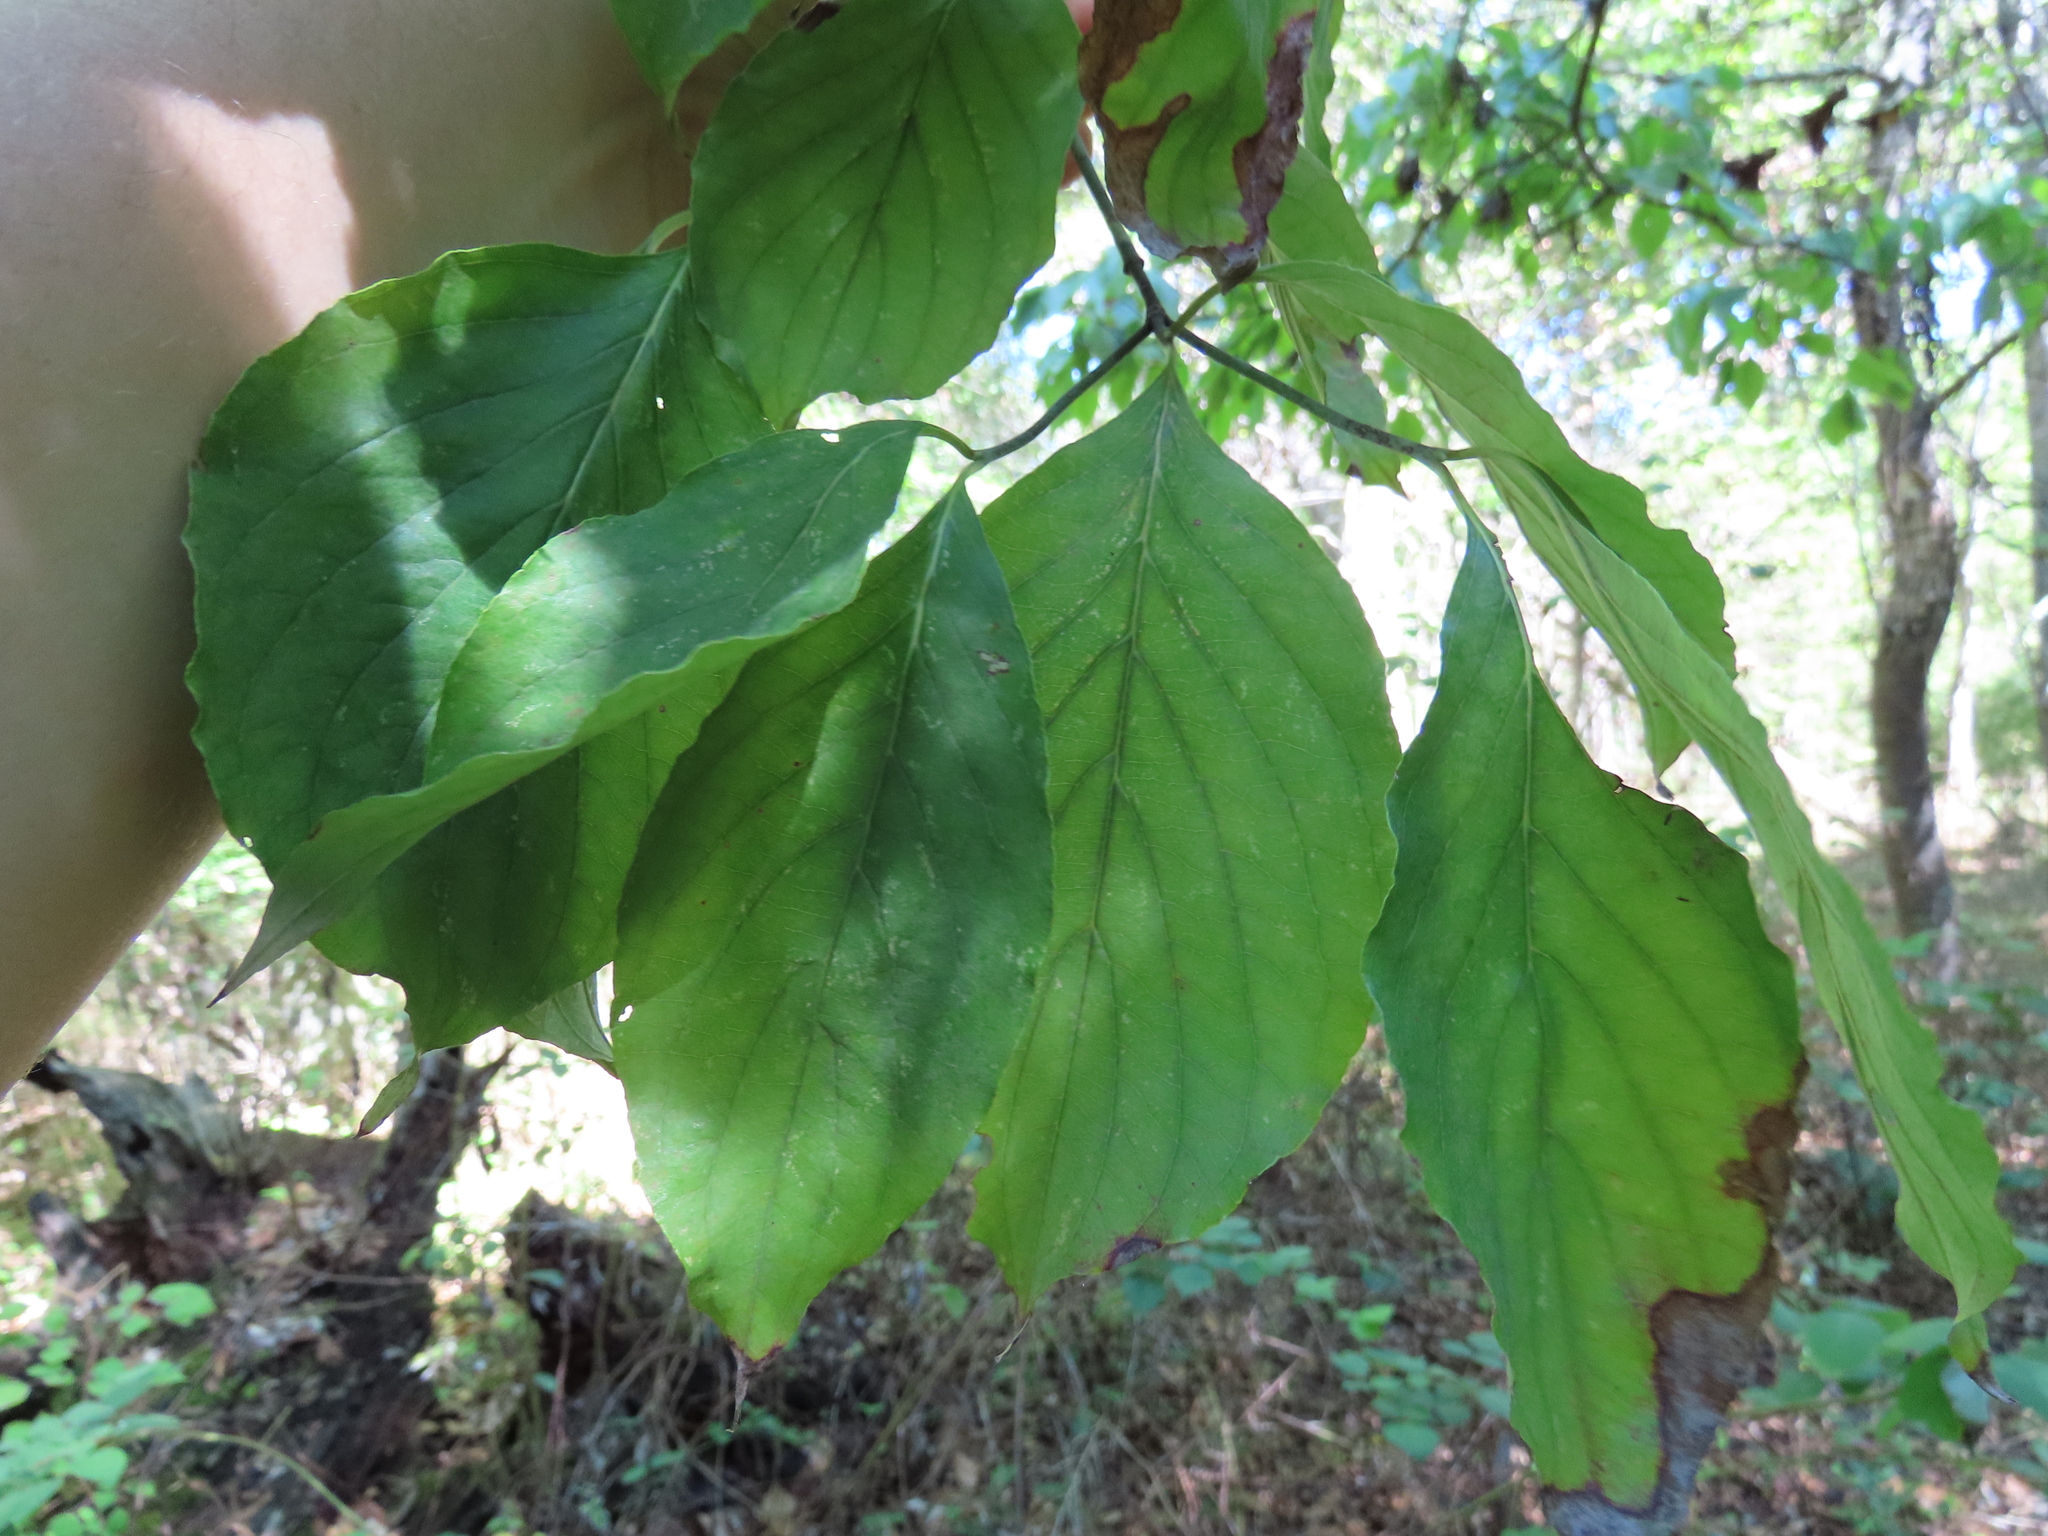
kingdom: Plantae
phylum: Tracheophyta
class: Magnoliopsida
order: Cornales
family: Cornaceae
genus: Cornus
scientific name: Cornus florida
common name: Flowering dogwood
